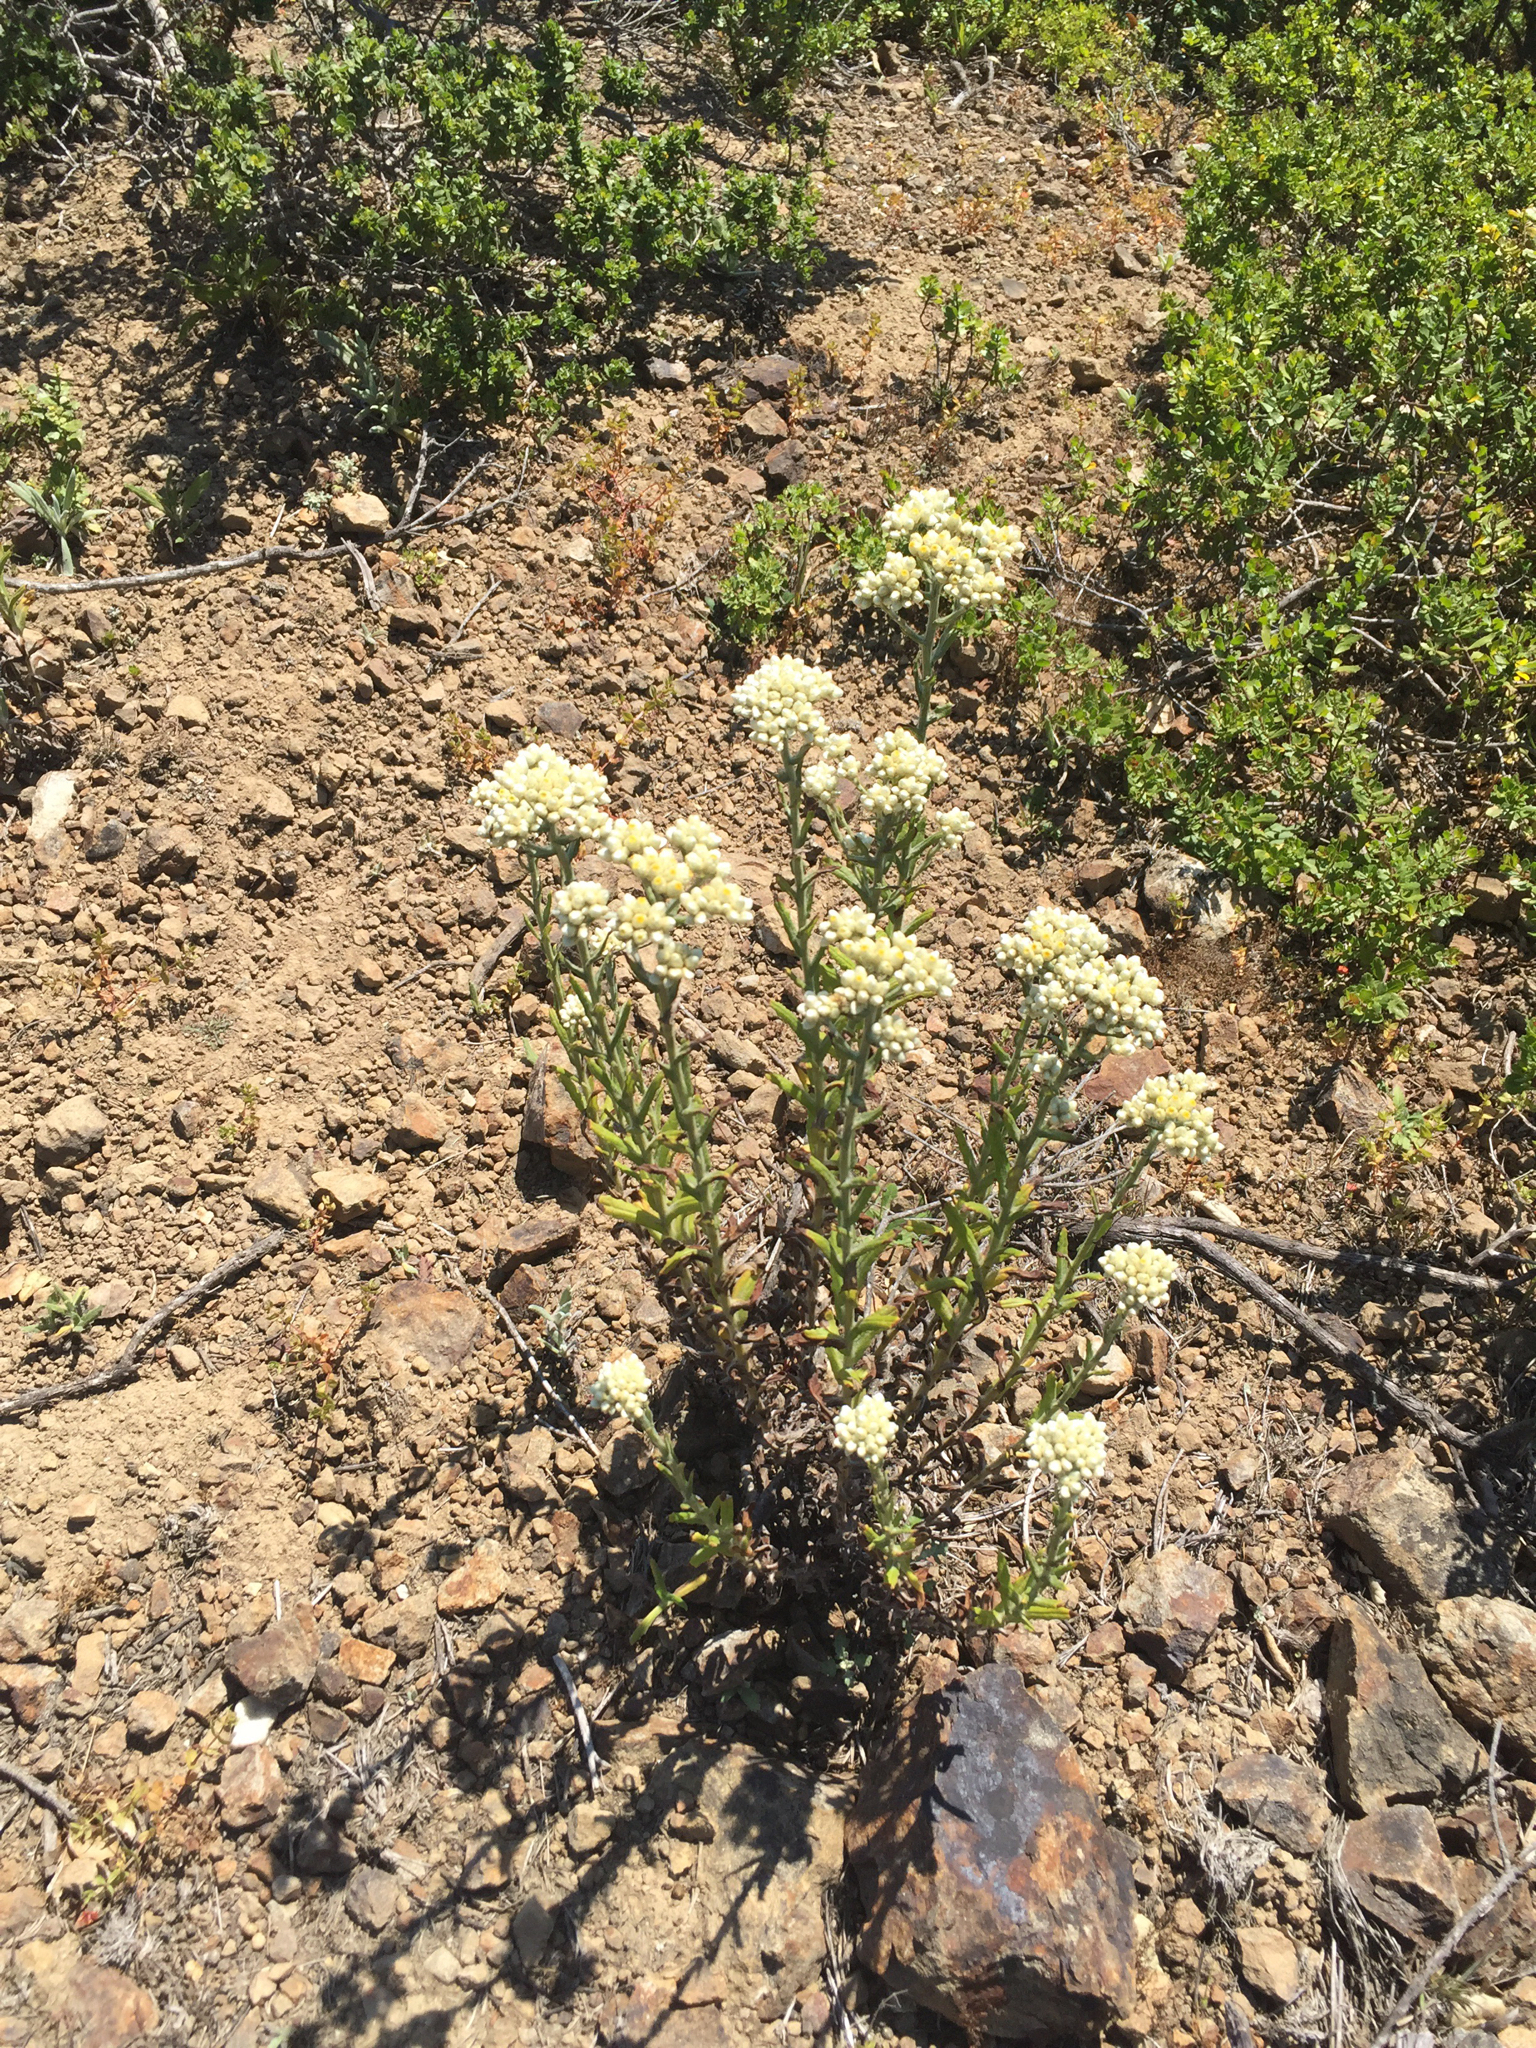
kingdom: Plantae
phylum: Tracheophyta
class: Magnoliopsida
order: Asterales
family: Asteraceae
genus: Pseudognaphalium
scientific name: Pseudognaphalium californicum
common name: California rabbit-tobacco
